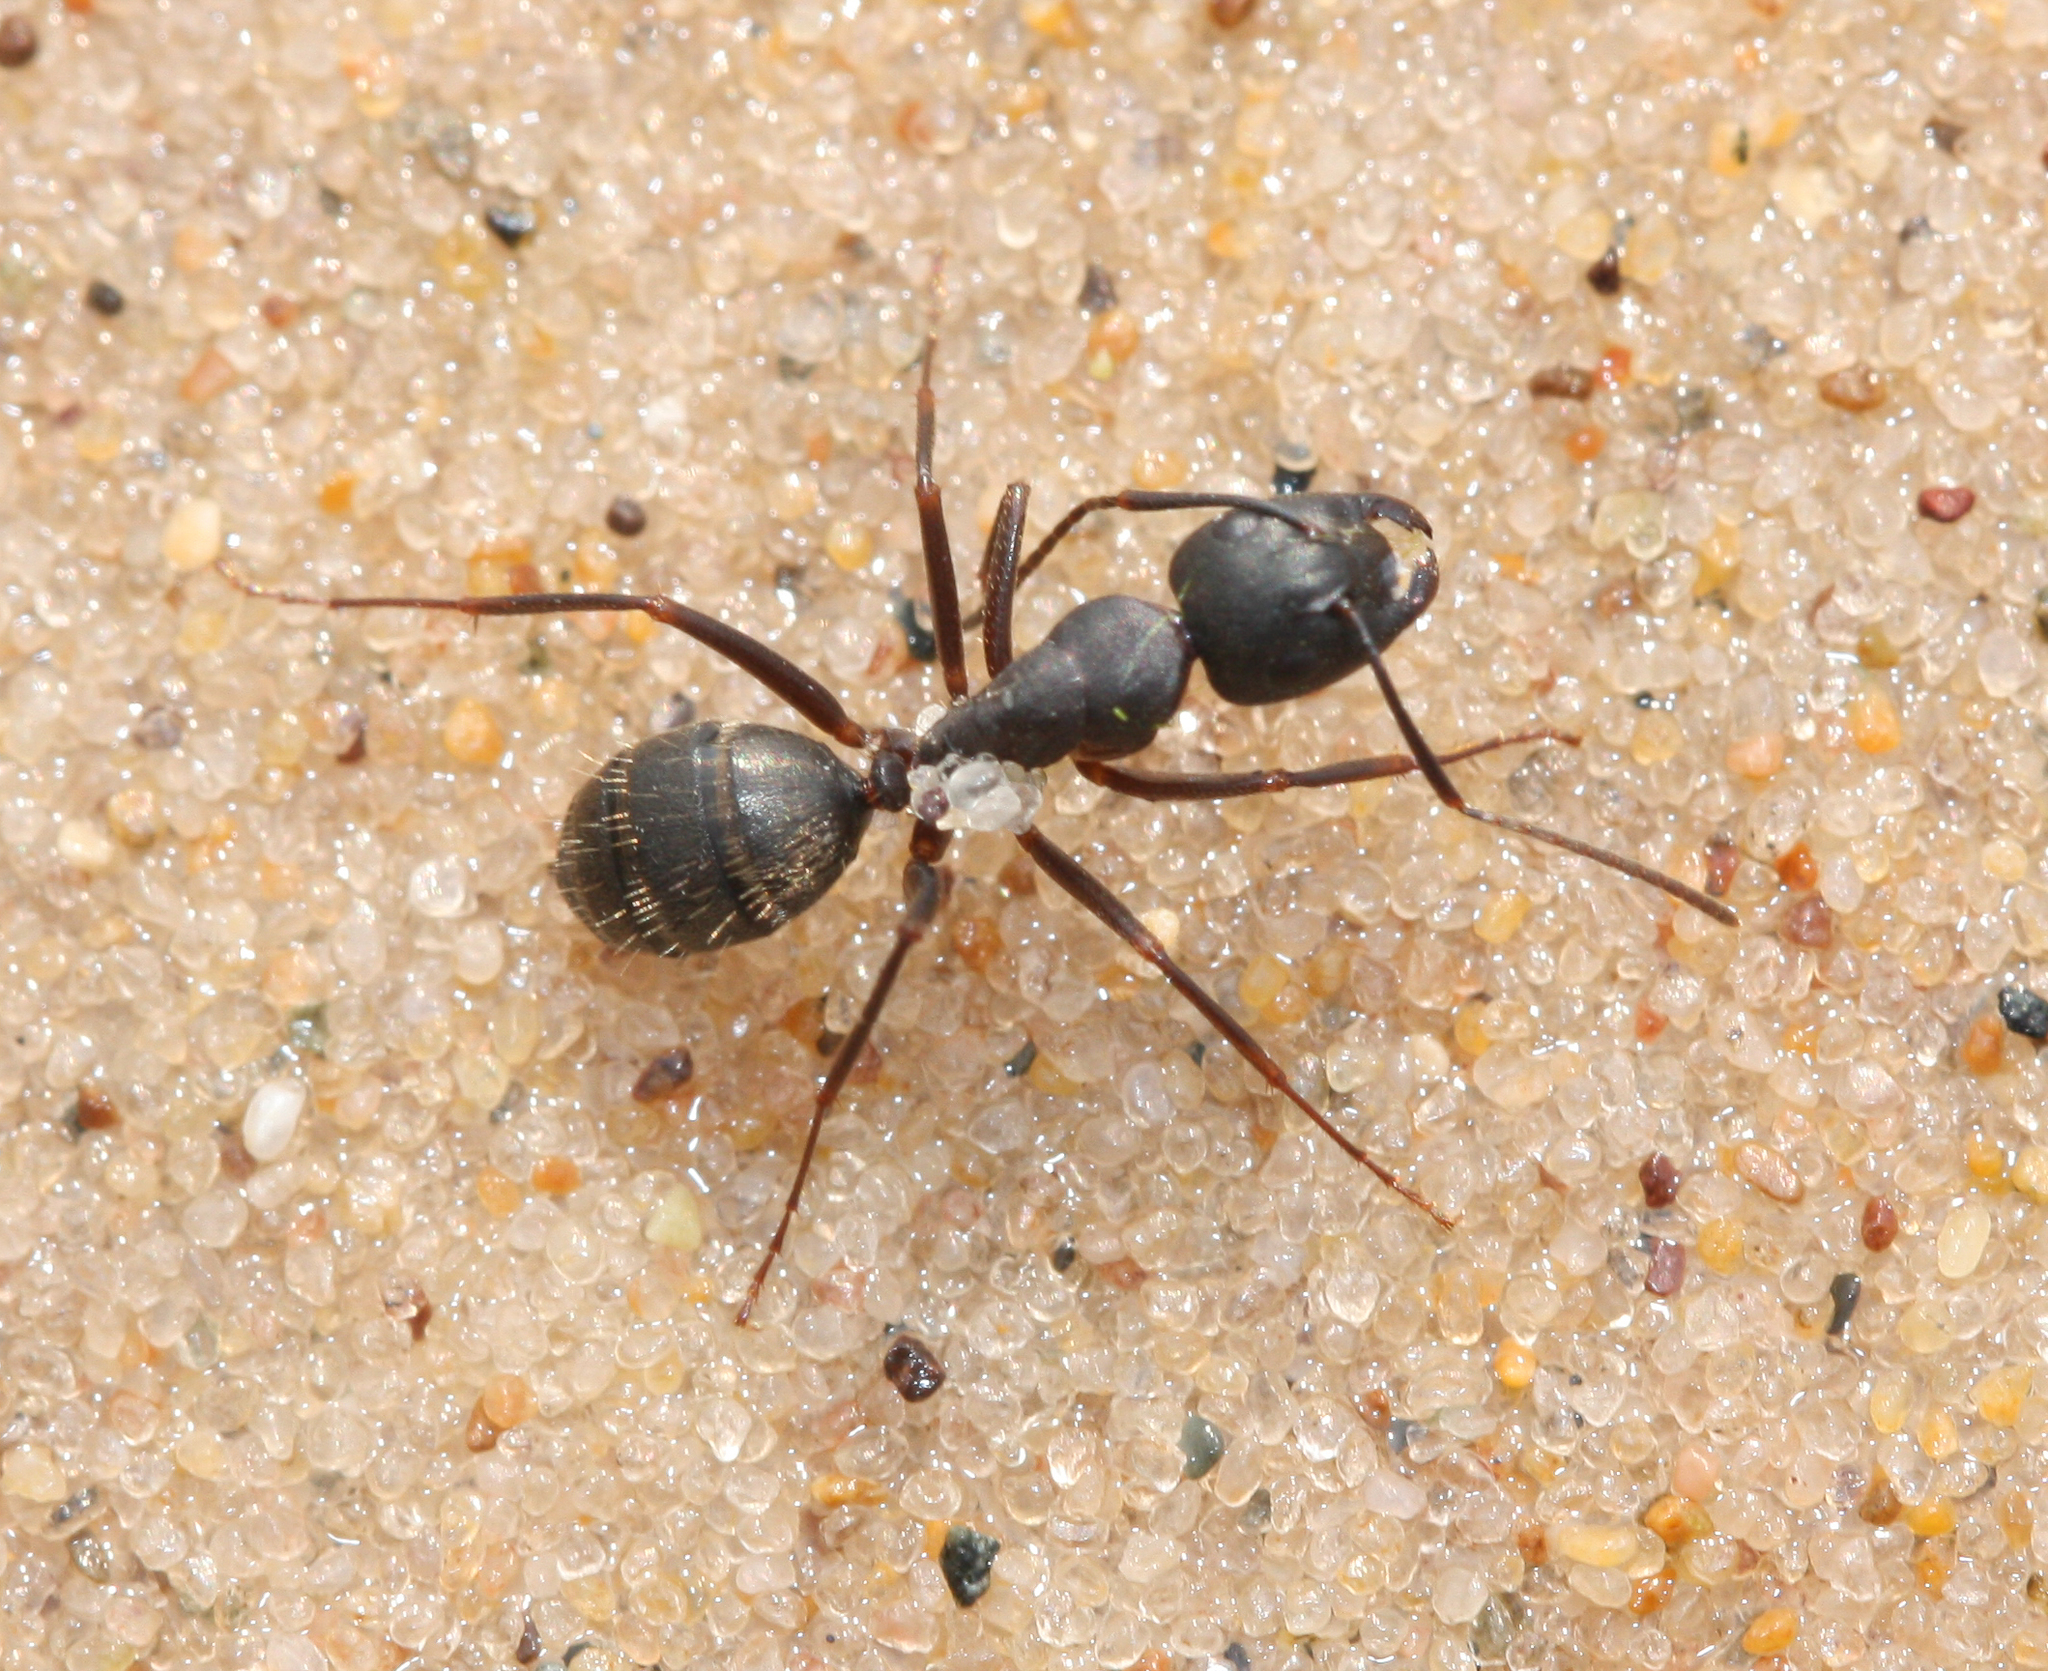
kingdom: Animalia
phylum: Arthropoda
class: Insecta
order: Hymenoptera
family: Formicidae
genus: Camponotus
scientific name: Camponotus pennsylvanicus
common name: Black carpenter ant
